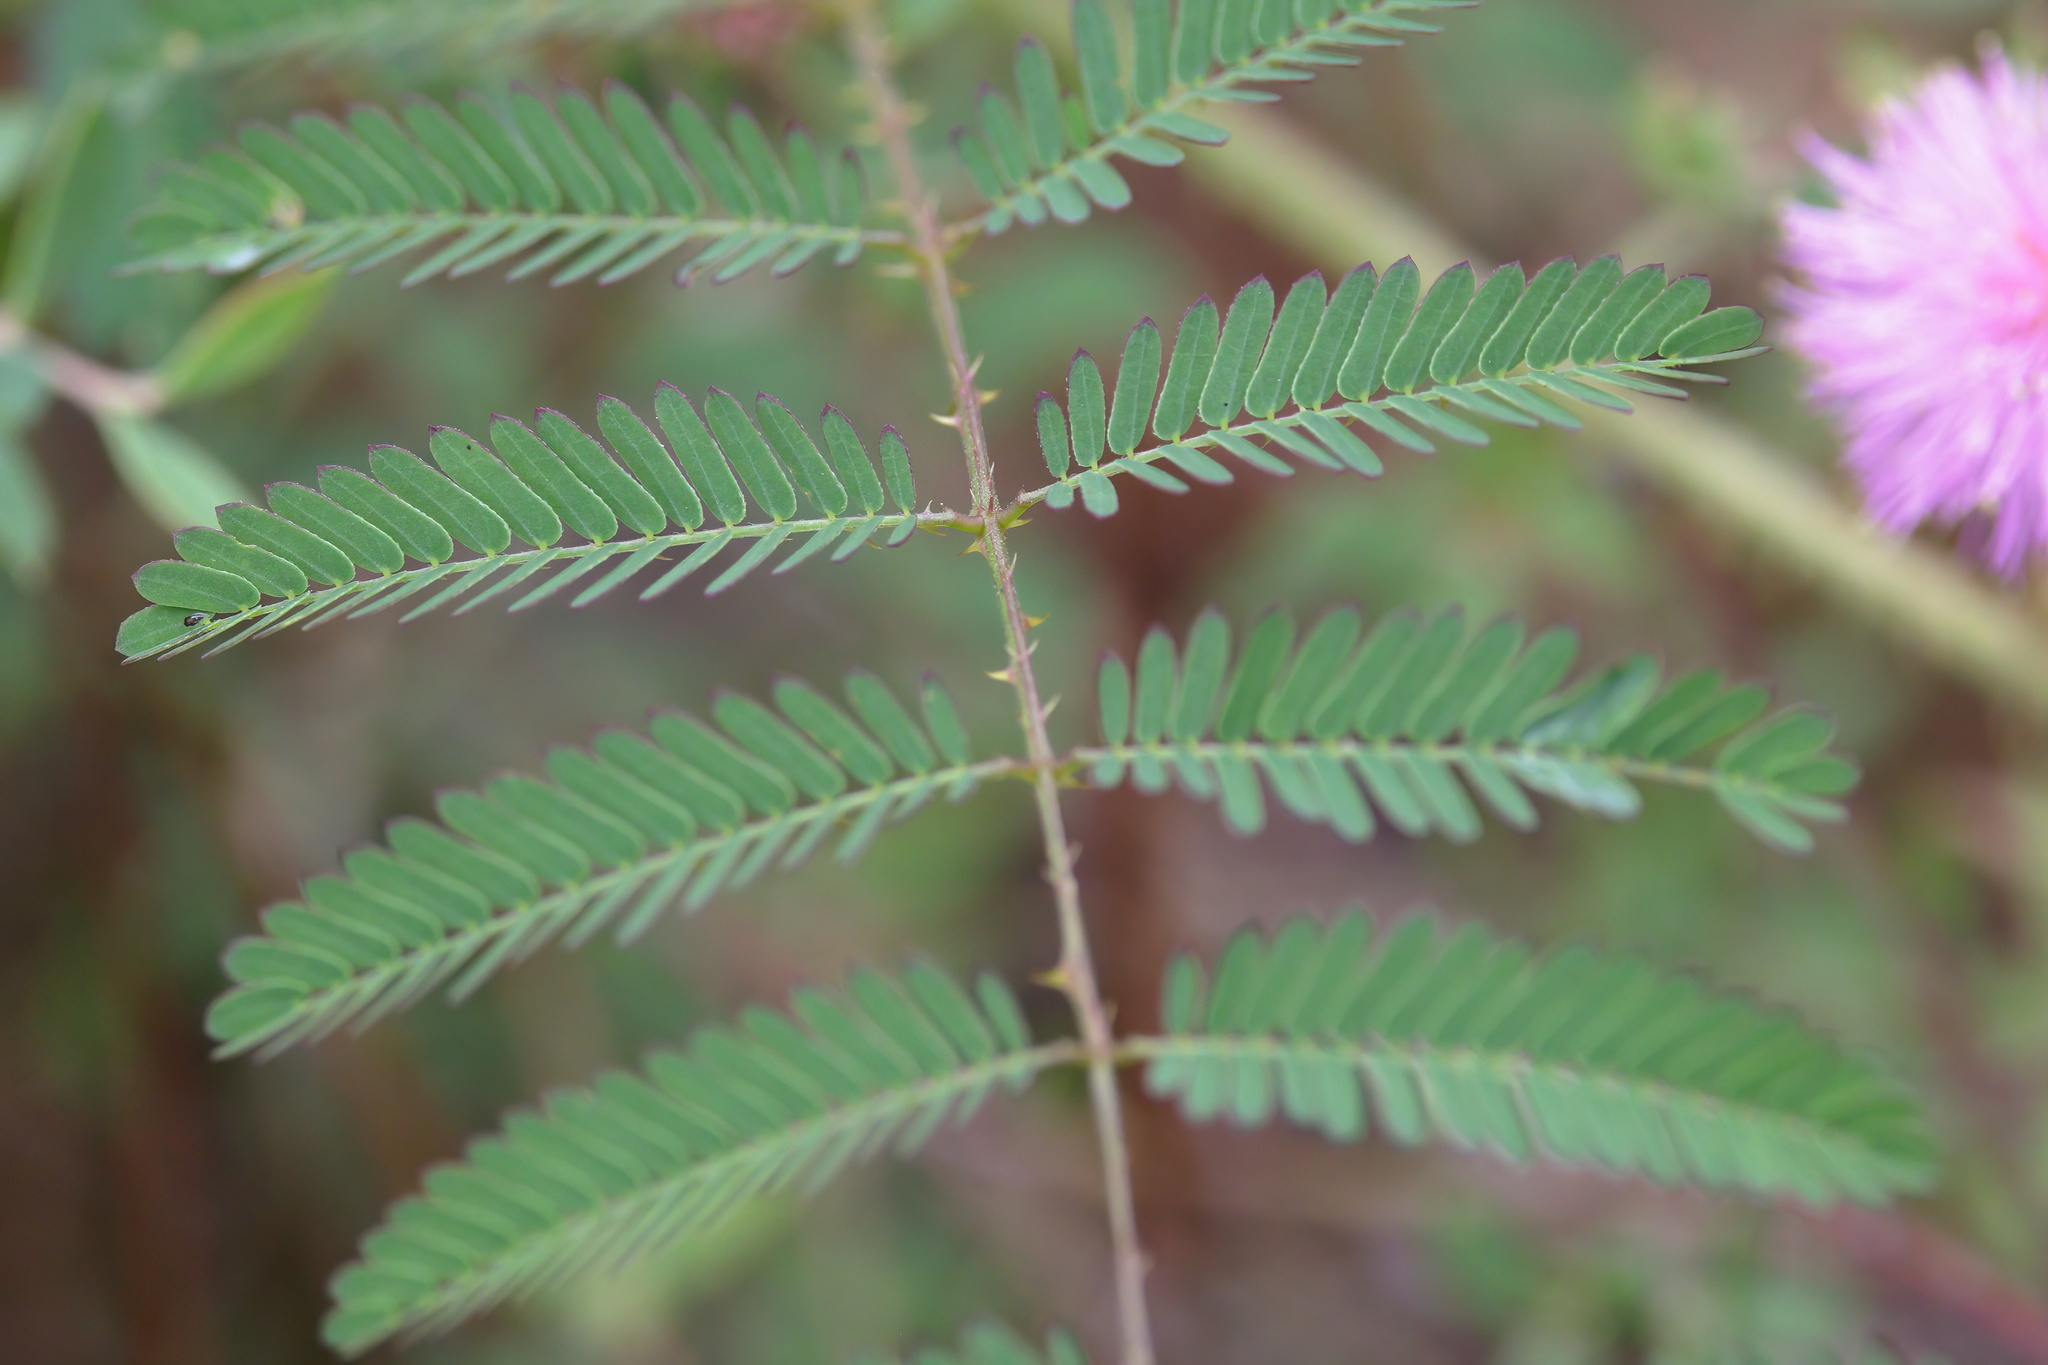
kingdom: Plantae
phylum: Tracheophyta
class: Magnoliopsida
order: Fabales
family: Fabaceae
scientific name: Fabaceae
